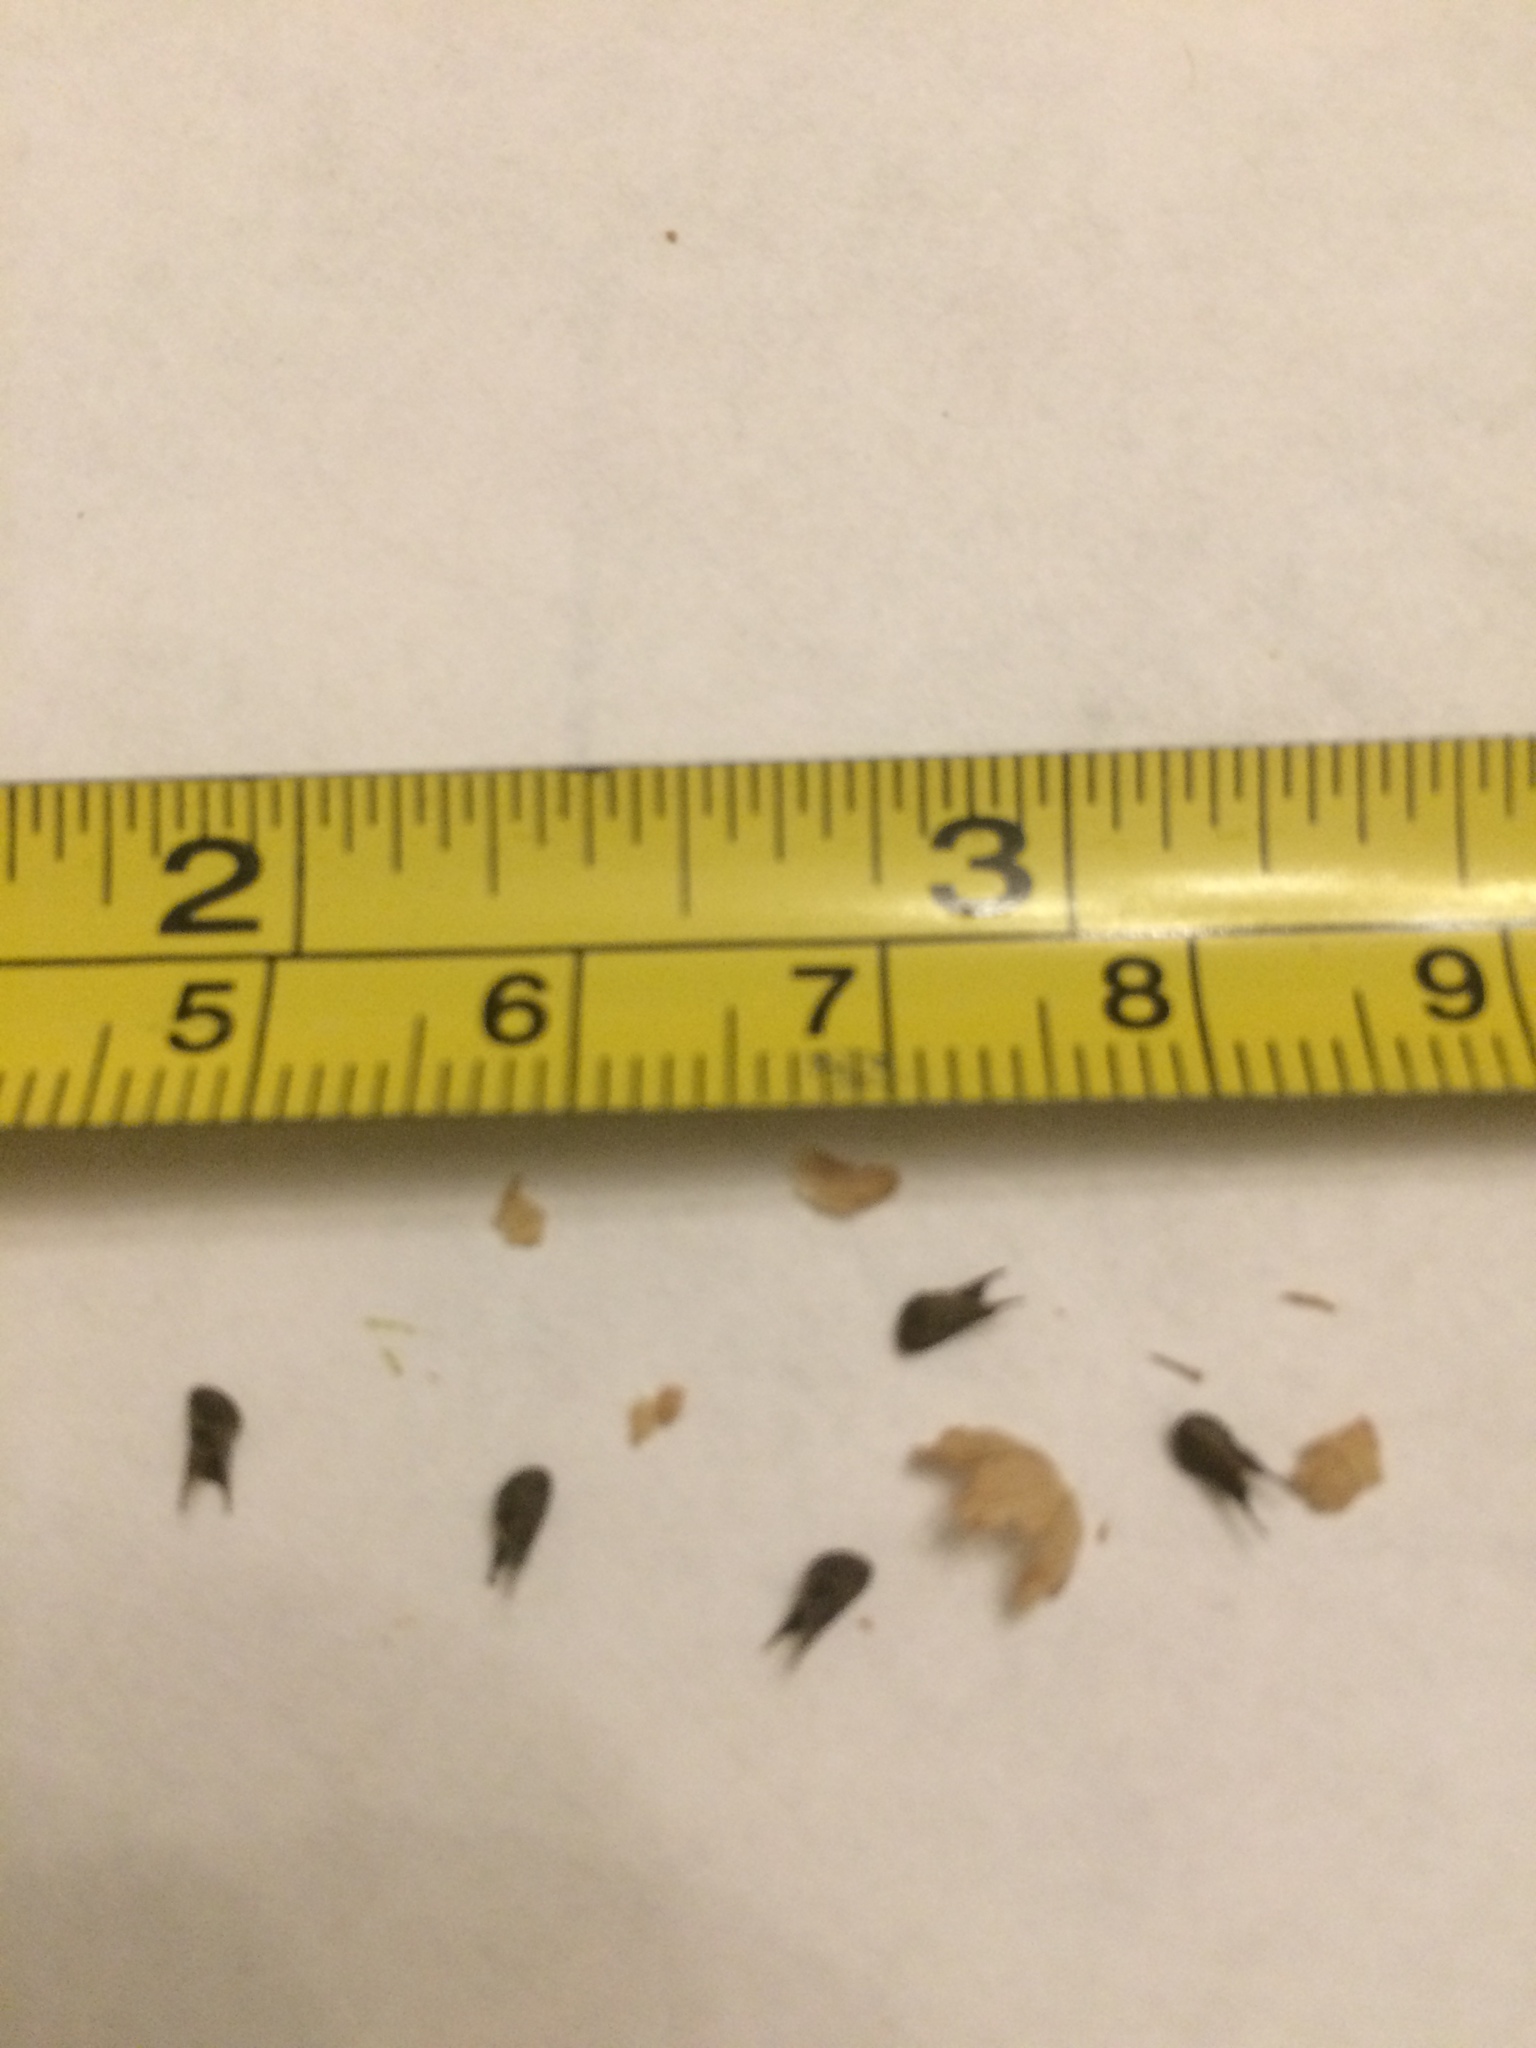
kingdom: Plantae
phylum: Tracheophyta
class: Magnoliopsida
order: Malvales
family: Malvaceae
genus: Sida
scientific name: Sida spinosa
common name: Prickly fanpetals
